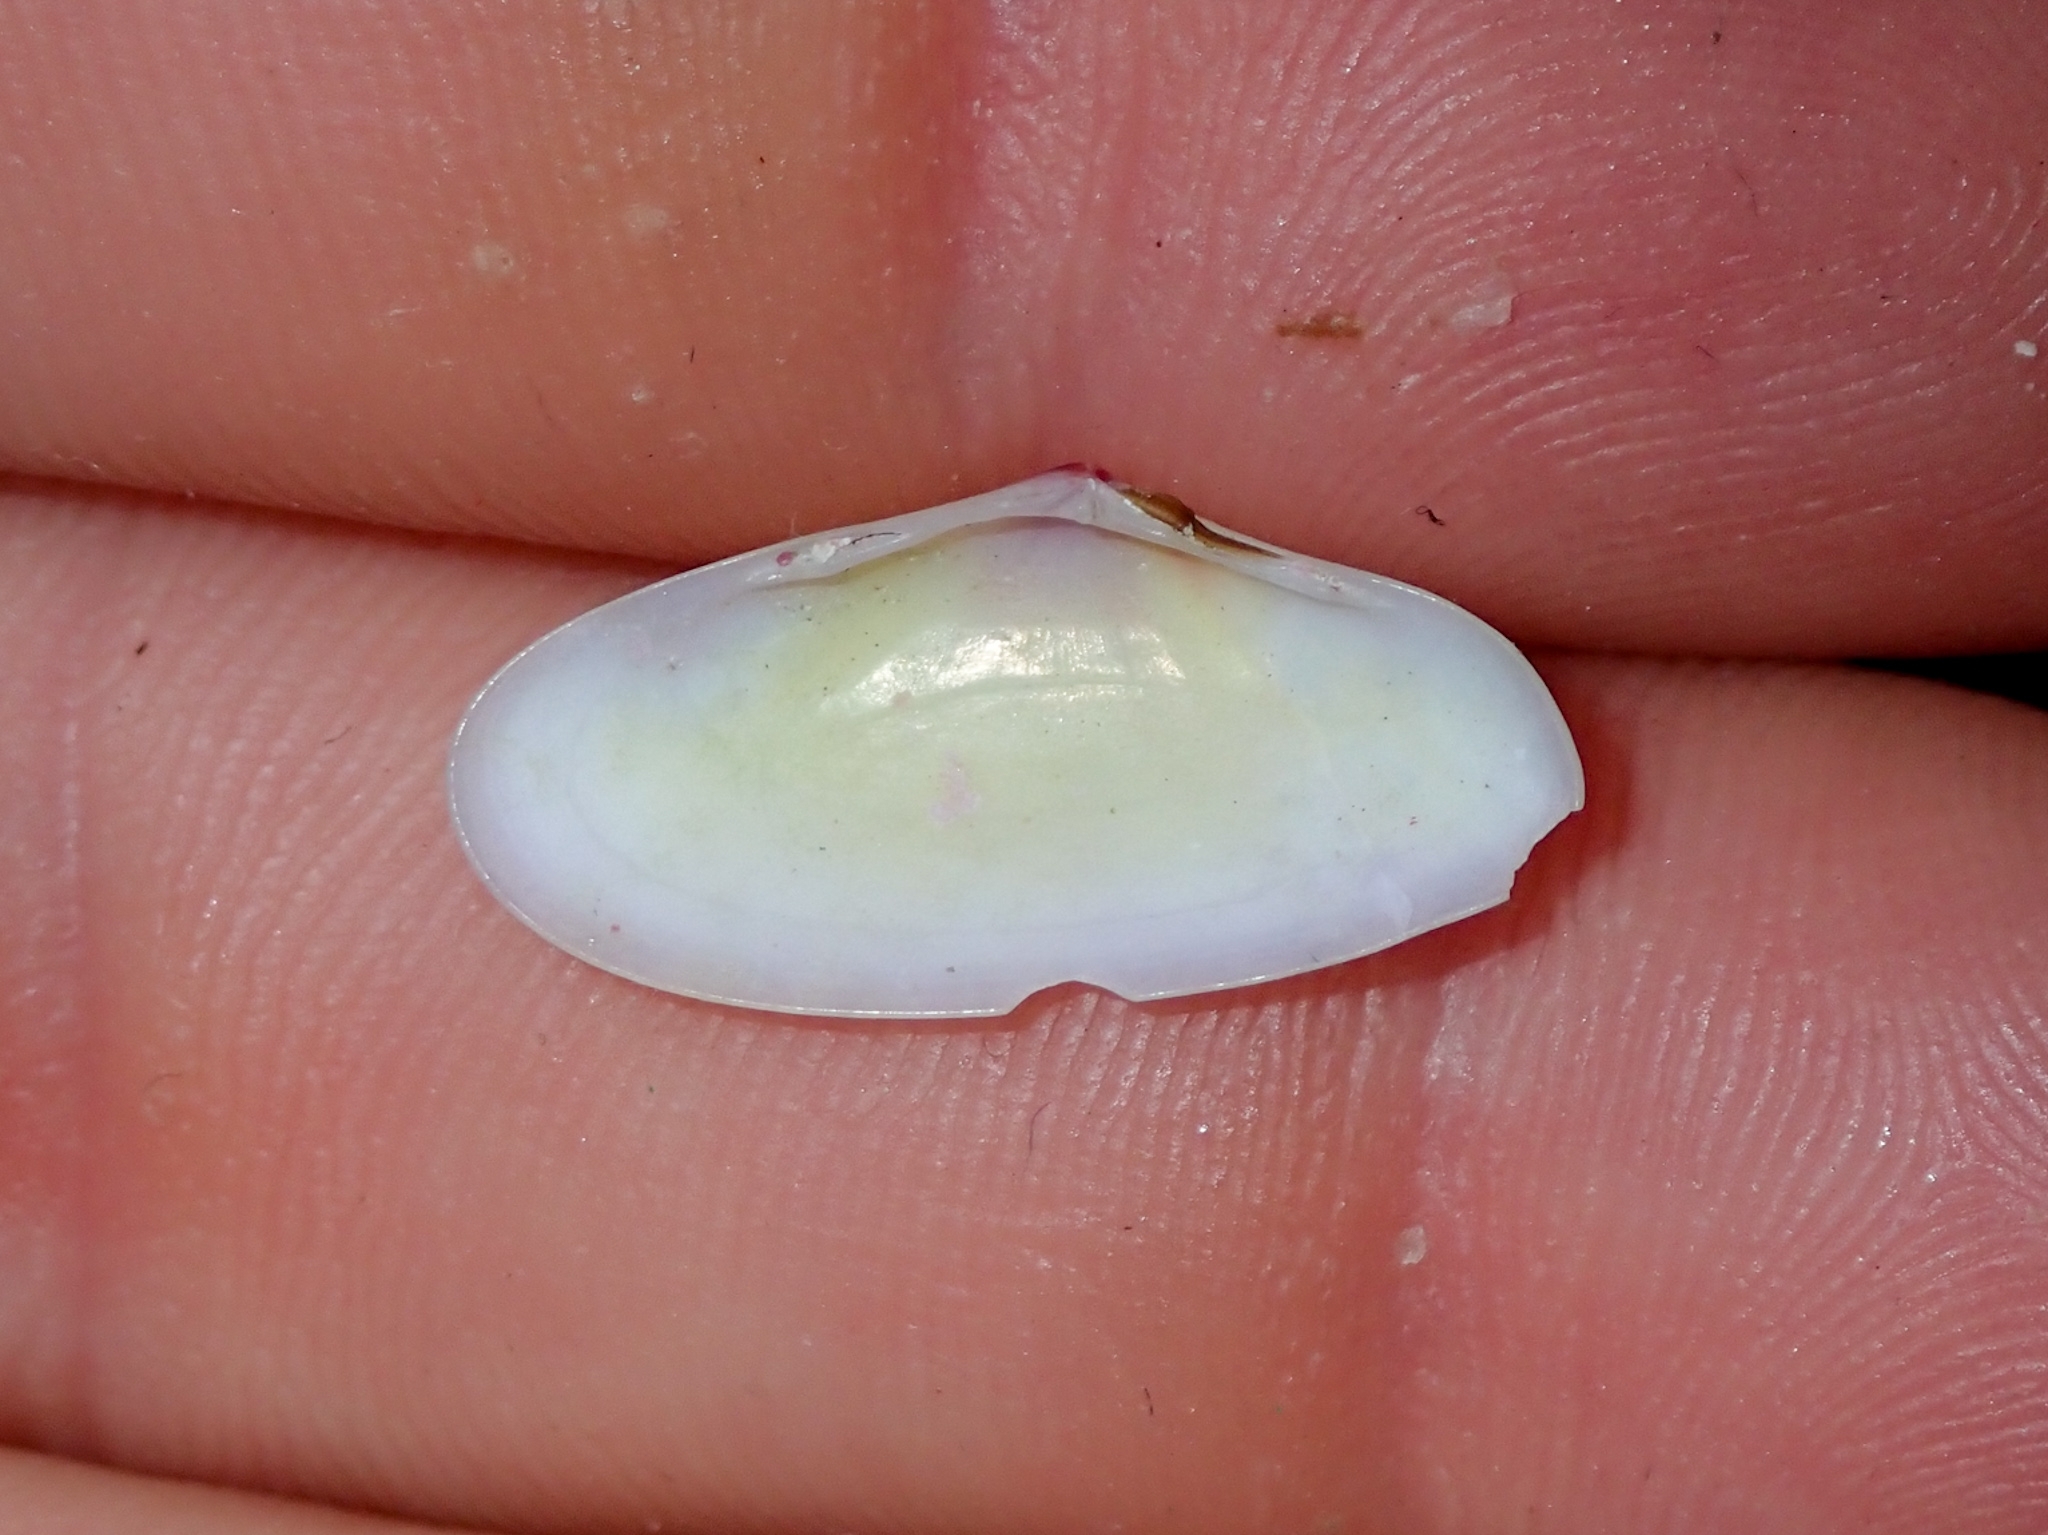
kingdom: Animalia
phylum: Mollusca
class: Bivalvia
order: Cardiida
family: Tellinidae
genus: Tellina
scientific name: Tellina radiata
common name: Sunrise tellin
